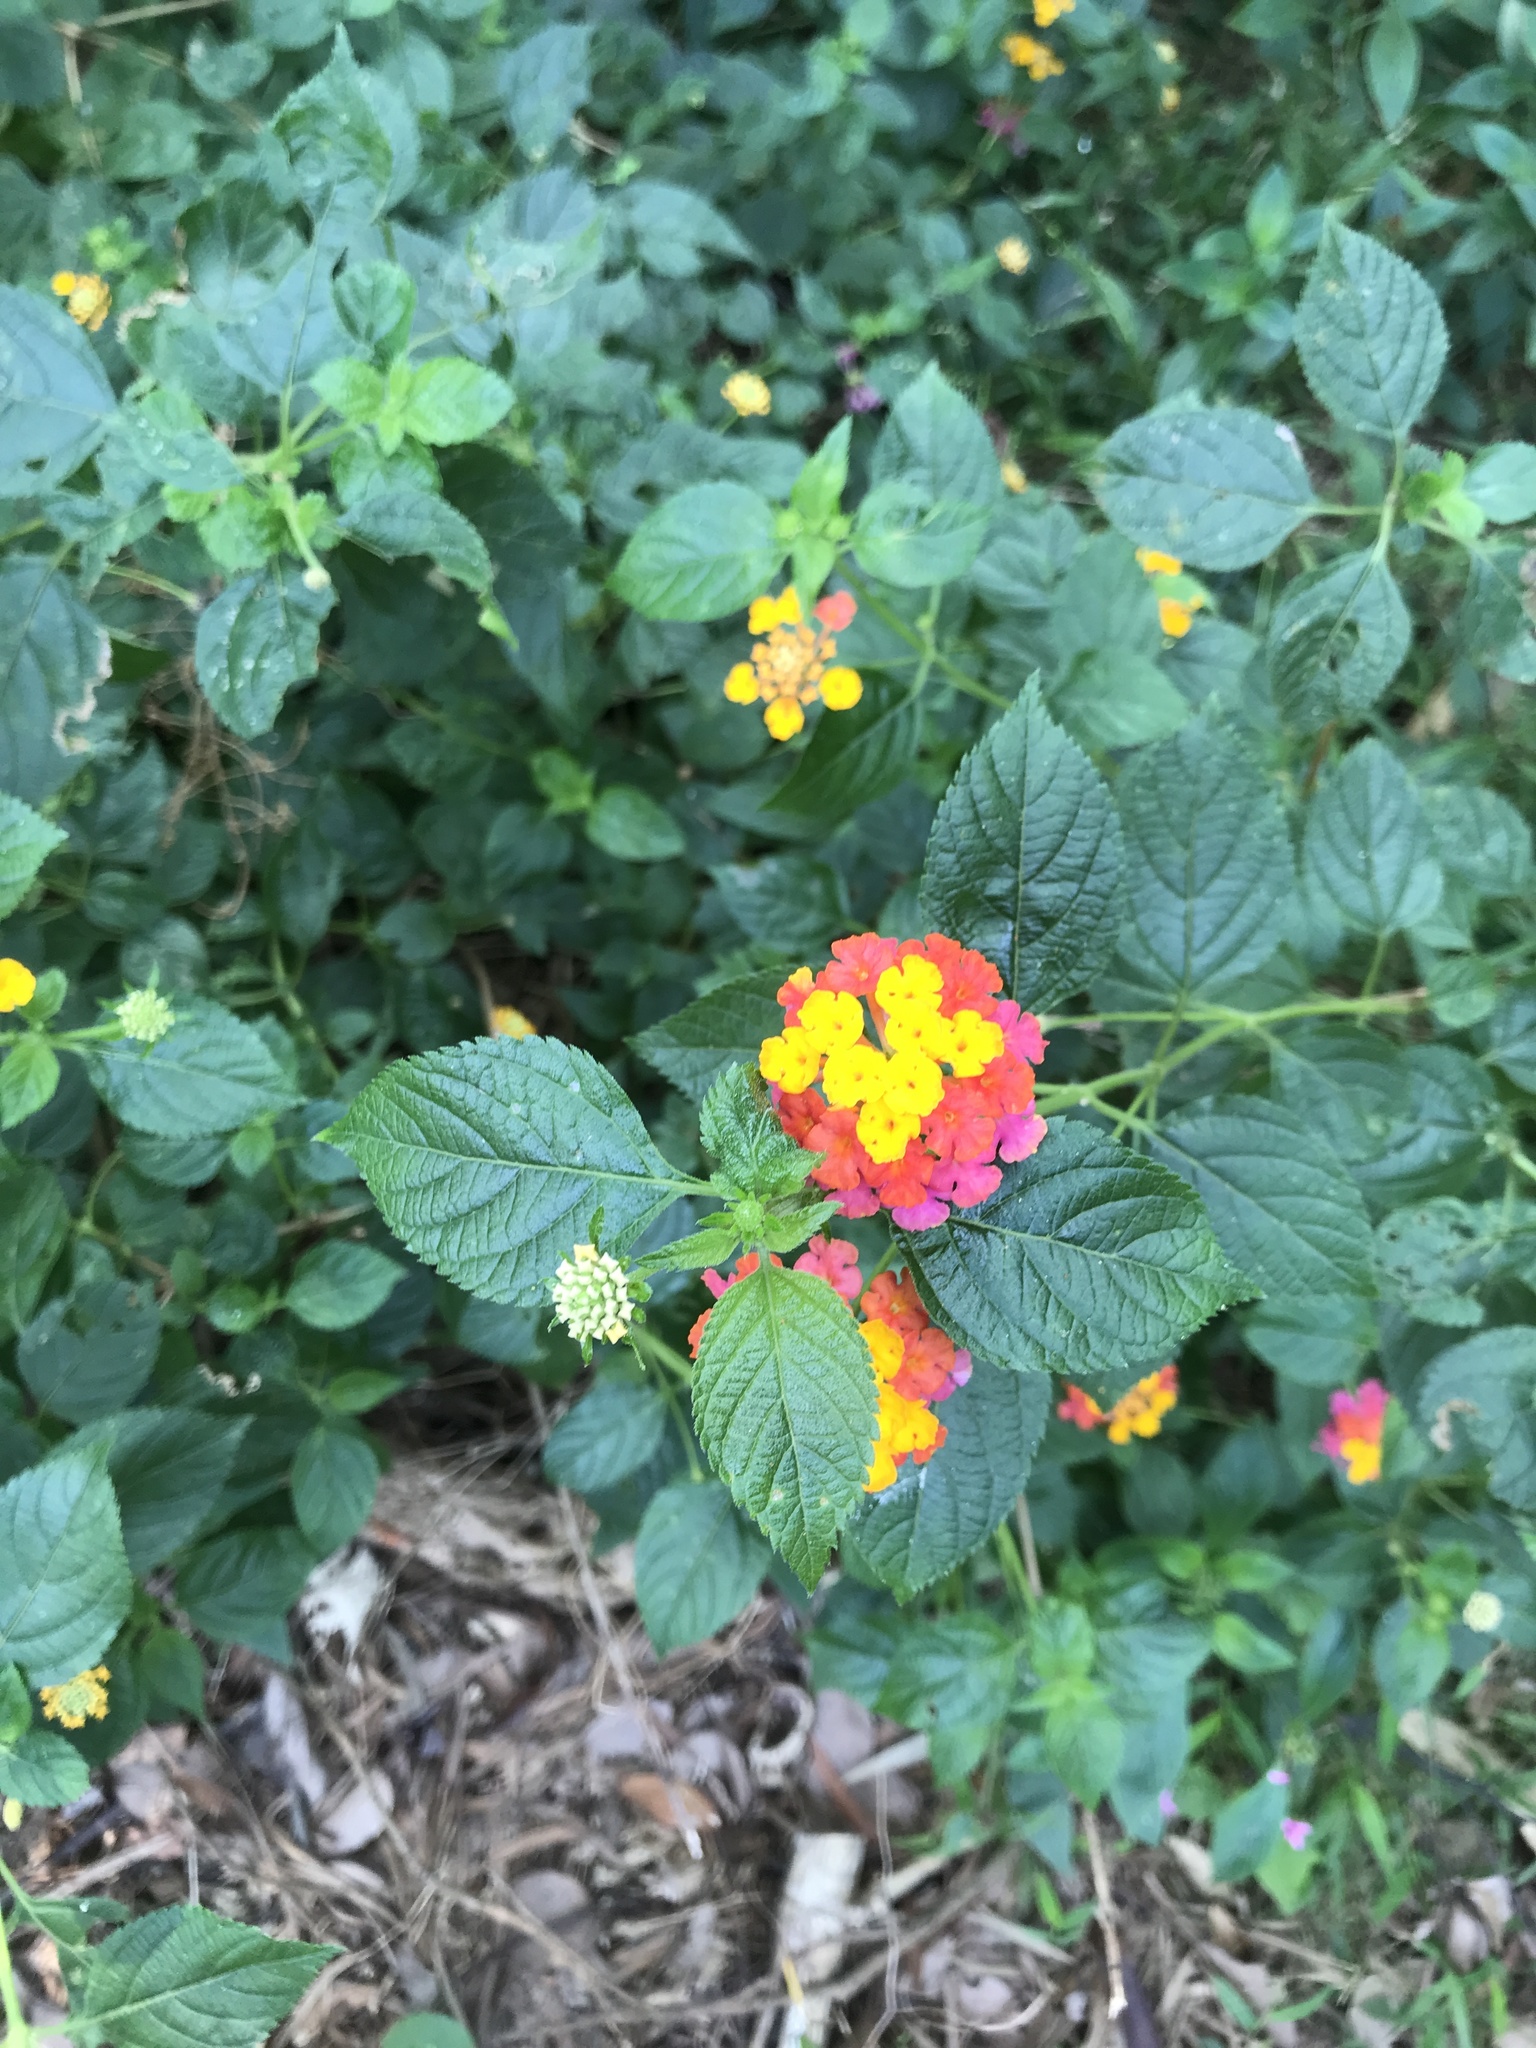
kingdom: Plantae
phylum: Tracheophyta
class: Magnoliopsida
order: Lamiales
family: Verbenaceae
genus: Lantana
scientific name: Lantana camara
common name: Lantana
